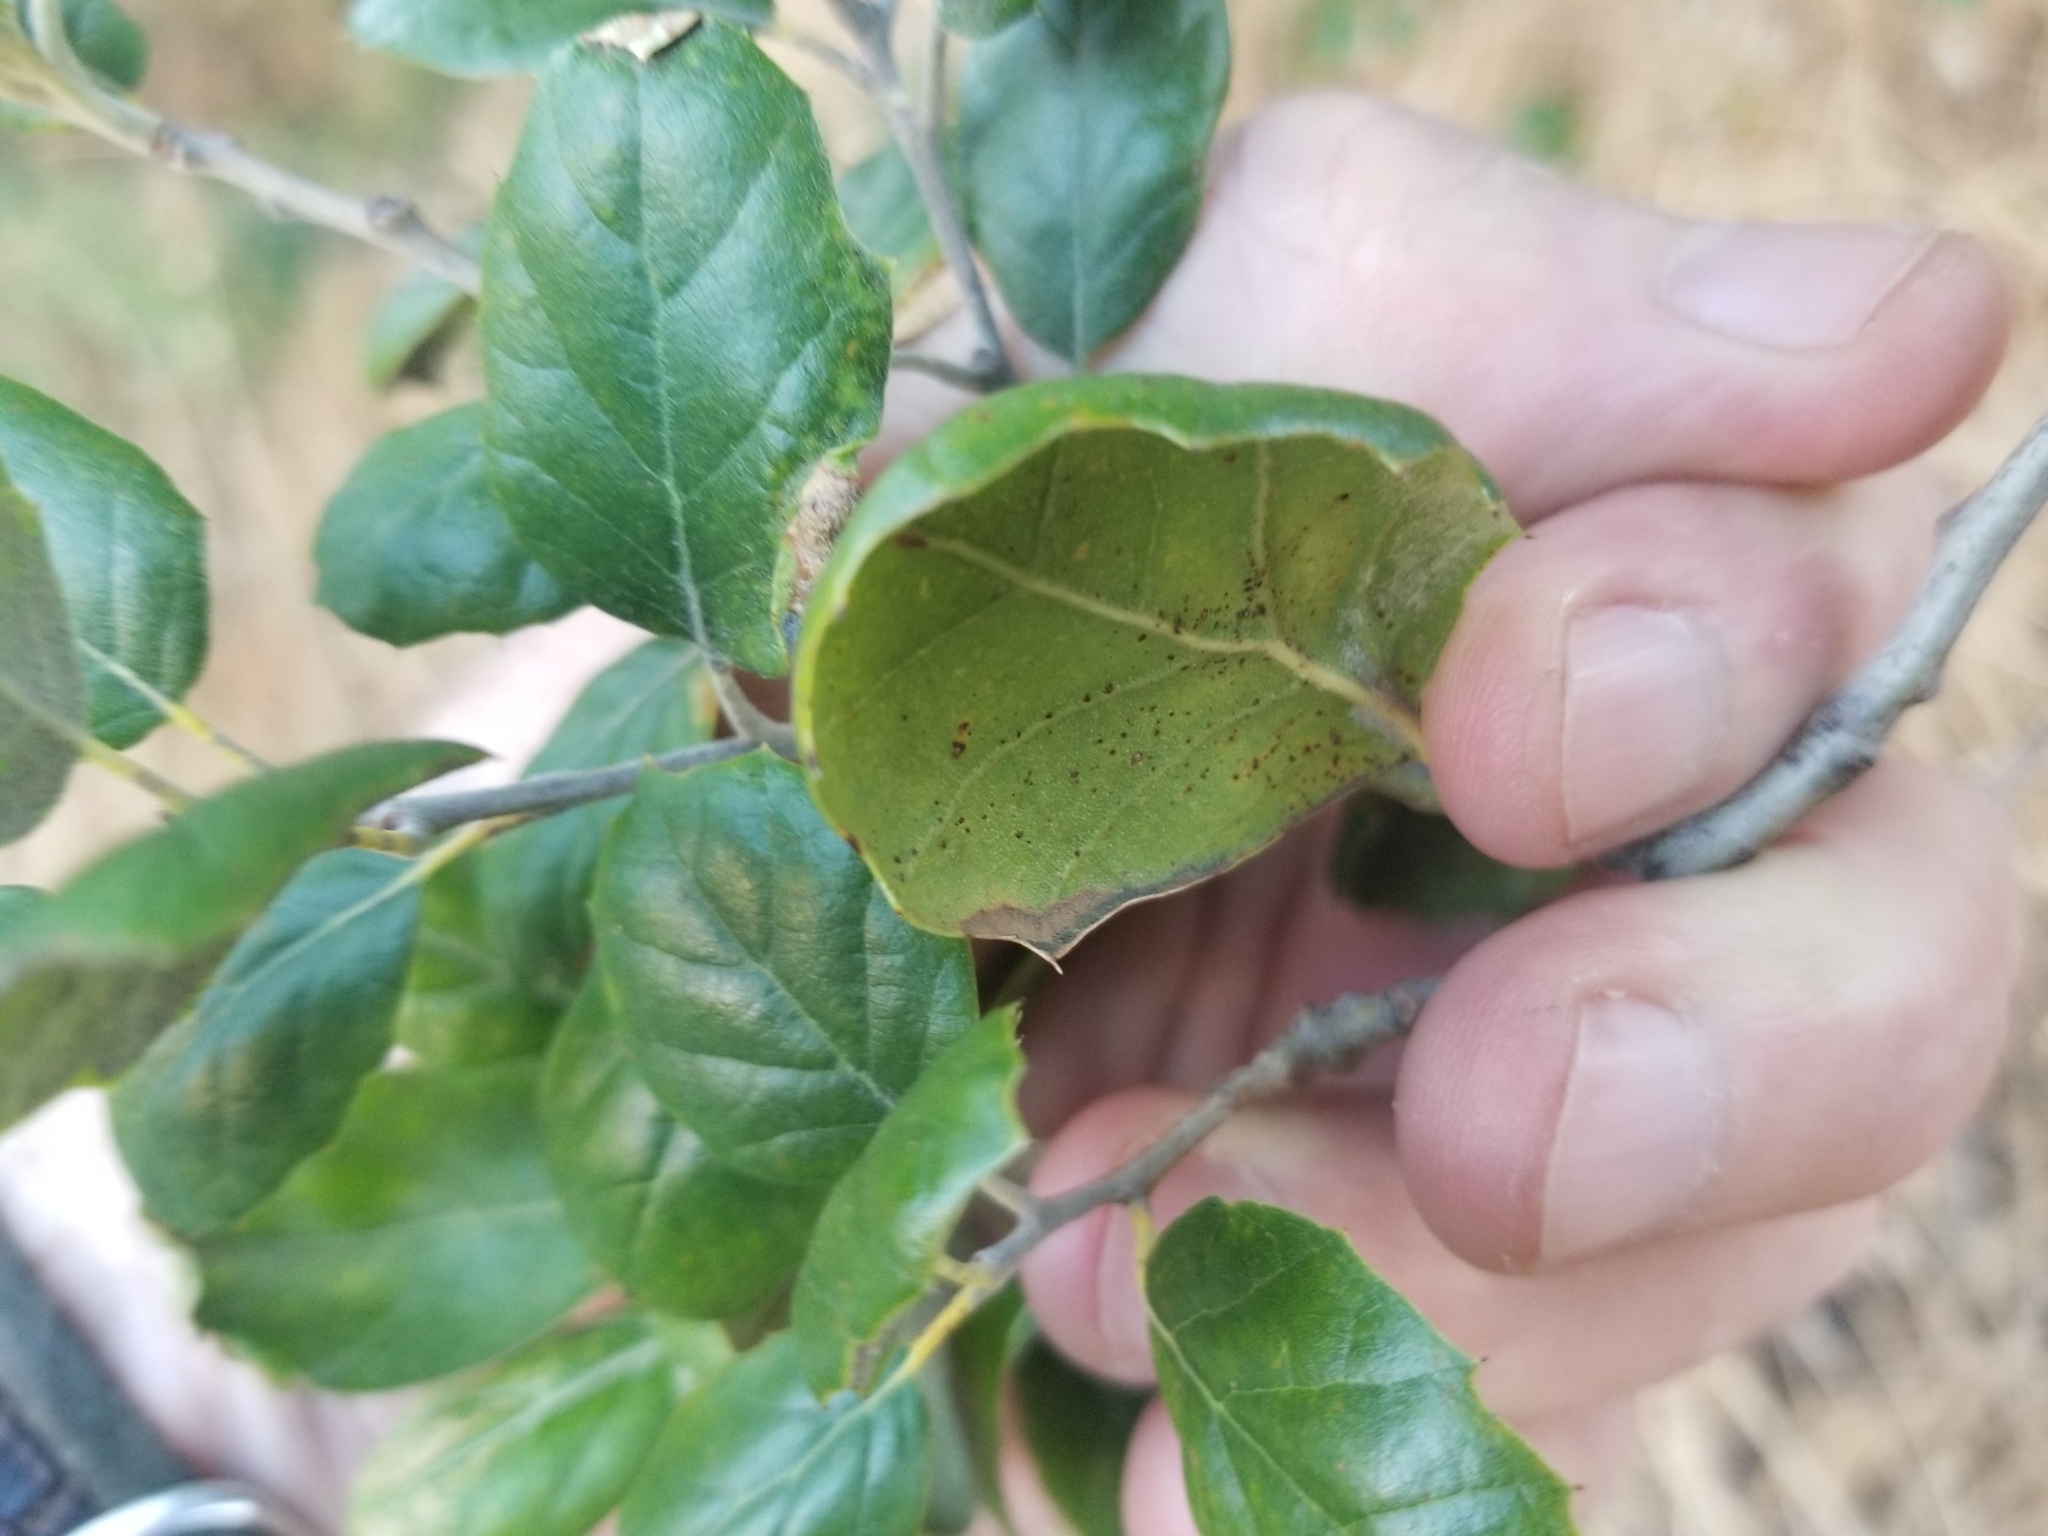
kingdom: Plantae
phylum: Tracheophyta
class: Magnoliopsida
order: Fagales
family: Fagaceae
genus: Quercus
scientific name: Quercus agrifolia
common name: California live oak
